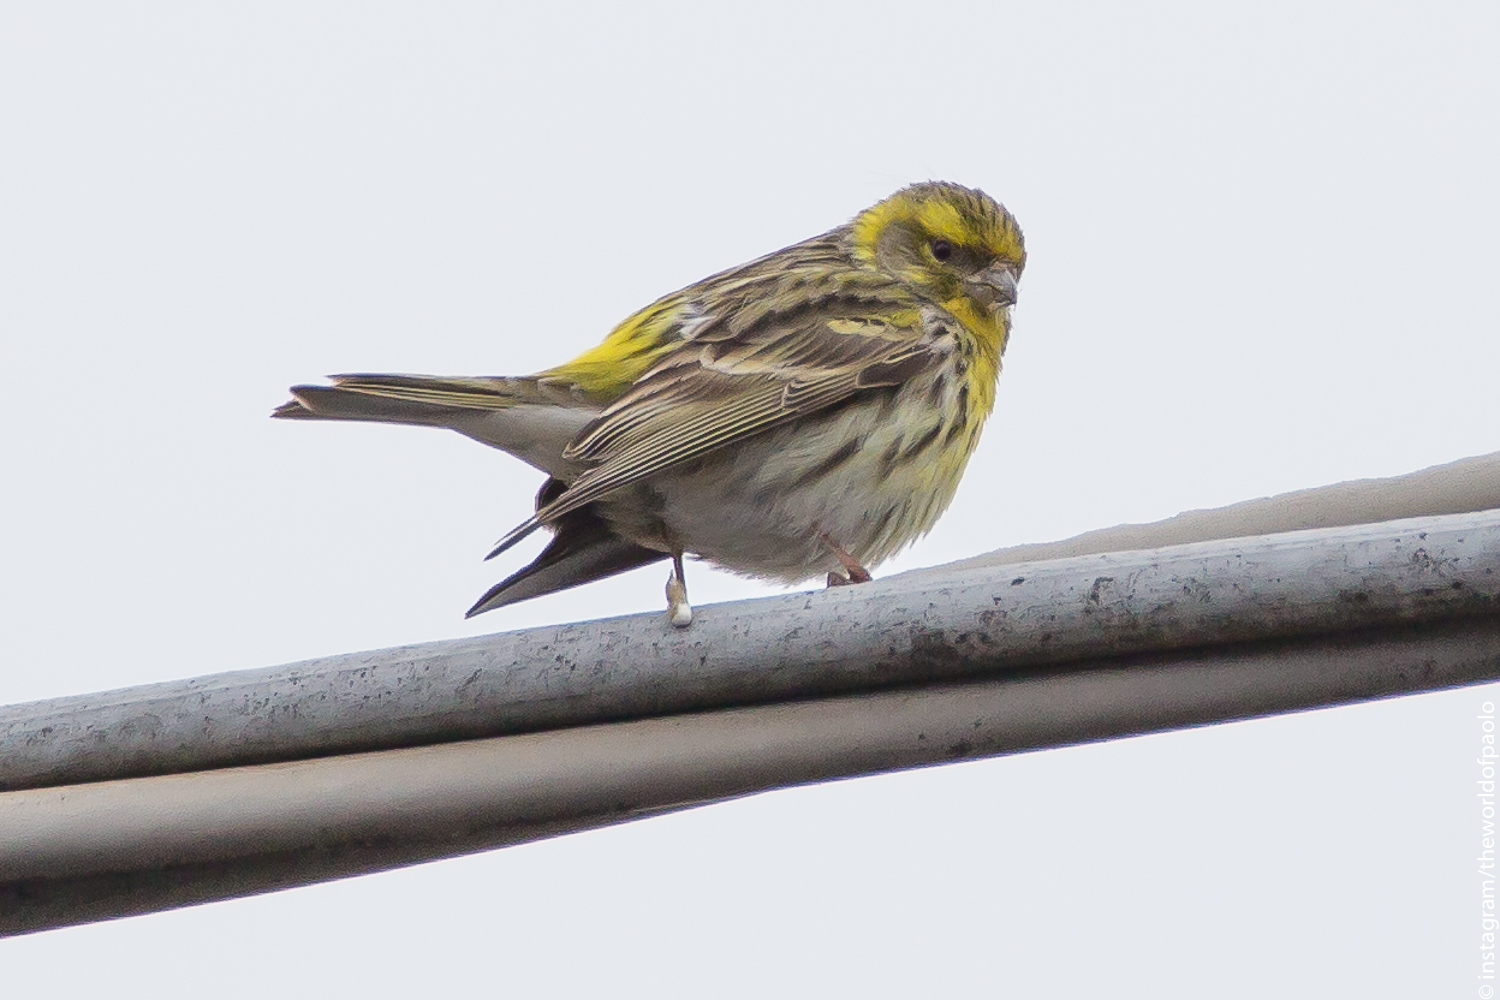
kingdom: Animalia
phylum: Chordata
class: Aves
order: Passeriformes
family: Fringillidae
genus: Serinus
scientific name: Serinus serinus
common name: European serin
